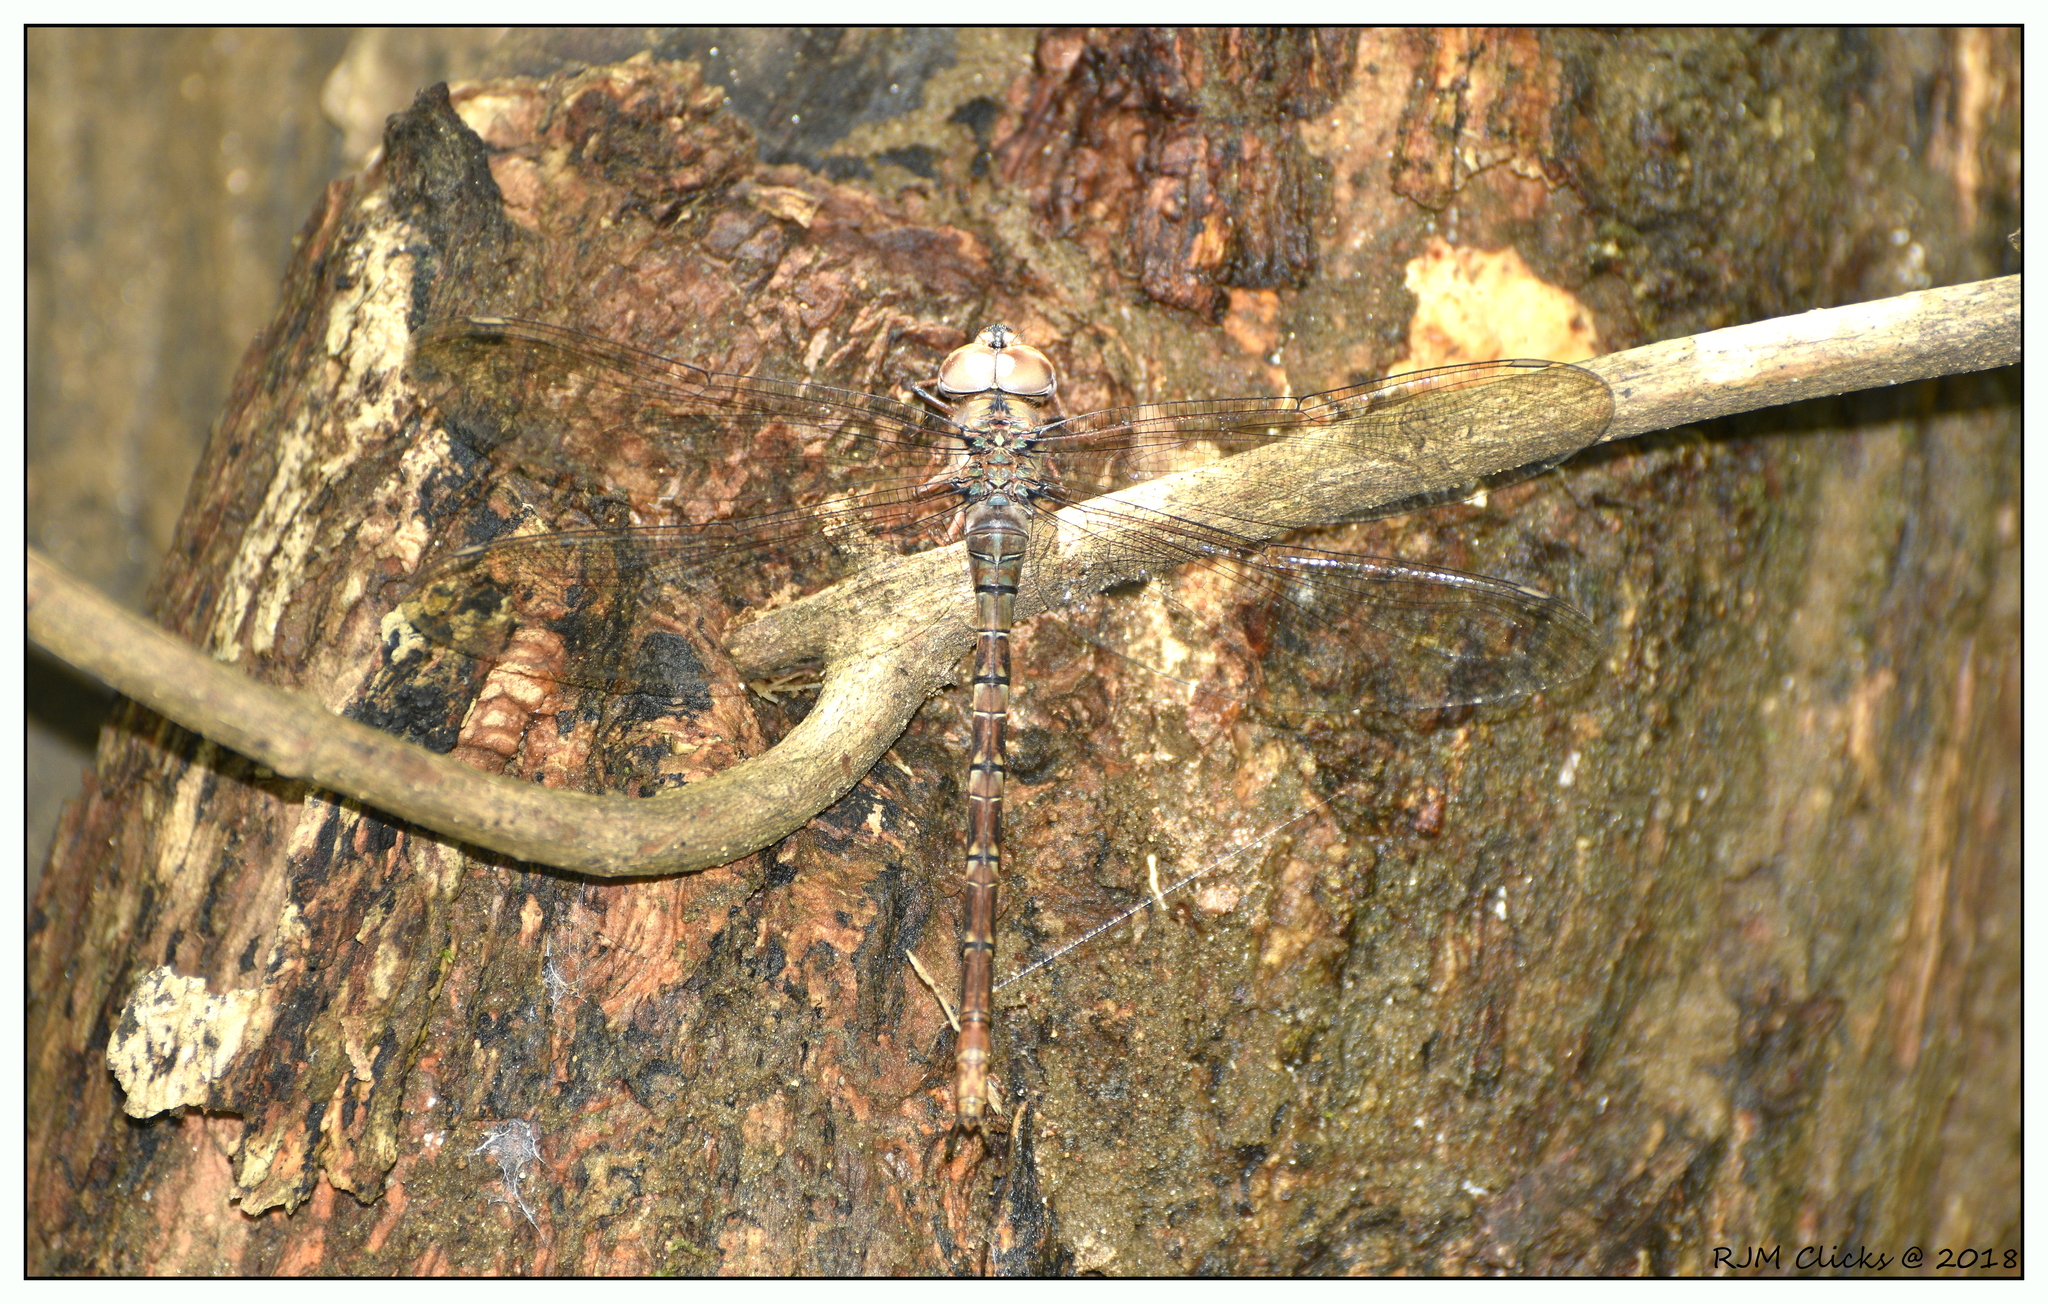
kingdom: Animalia
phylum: Arthropoda
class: Insecta
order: Odonata
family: Aeshnidae
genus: Gynacantha
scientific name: Gynacantha dravida
